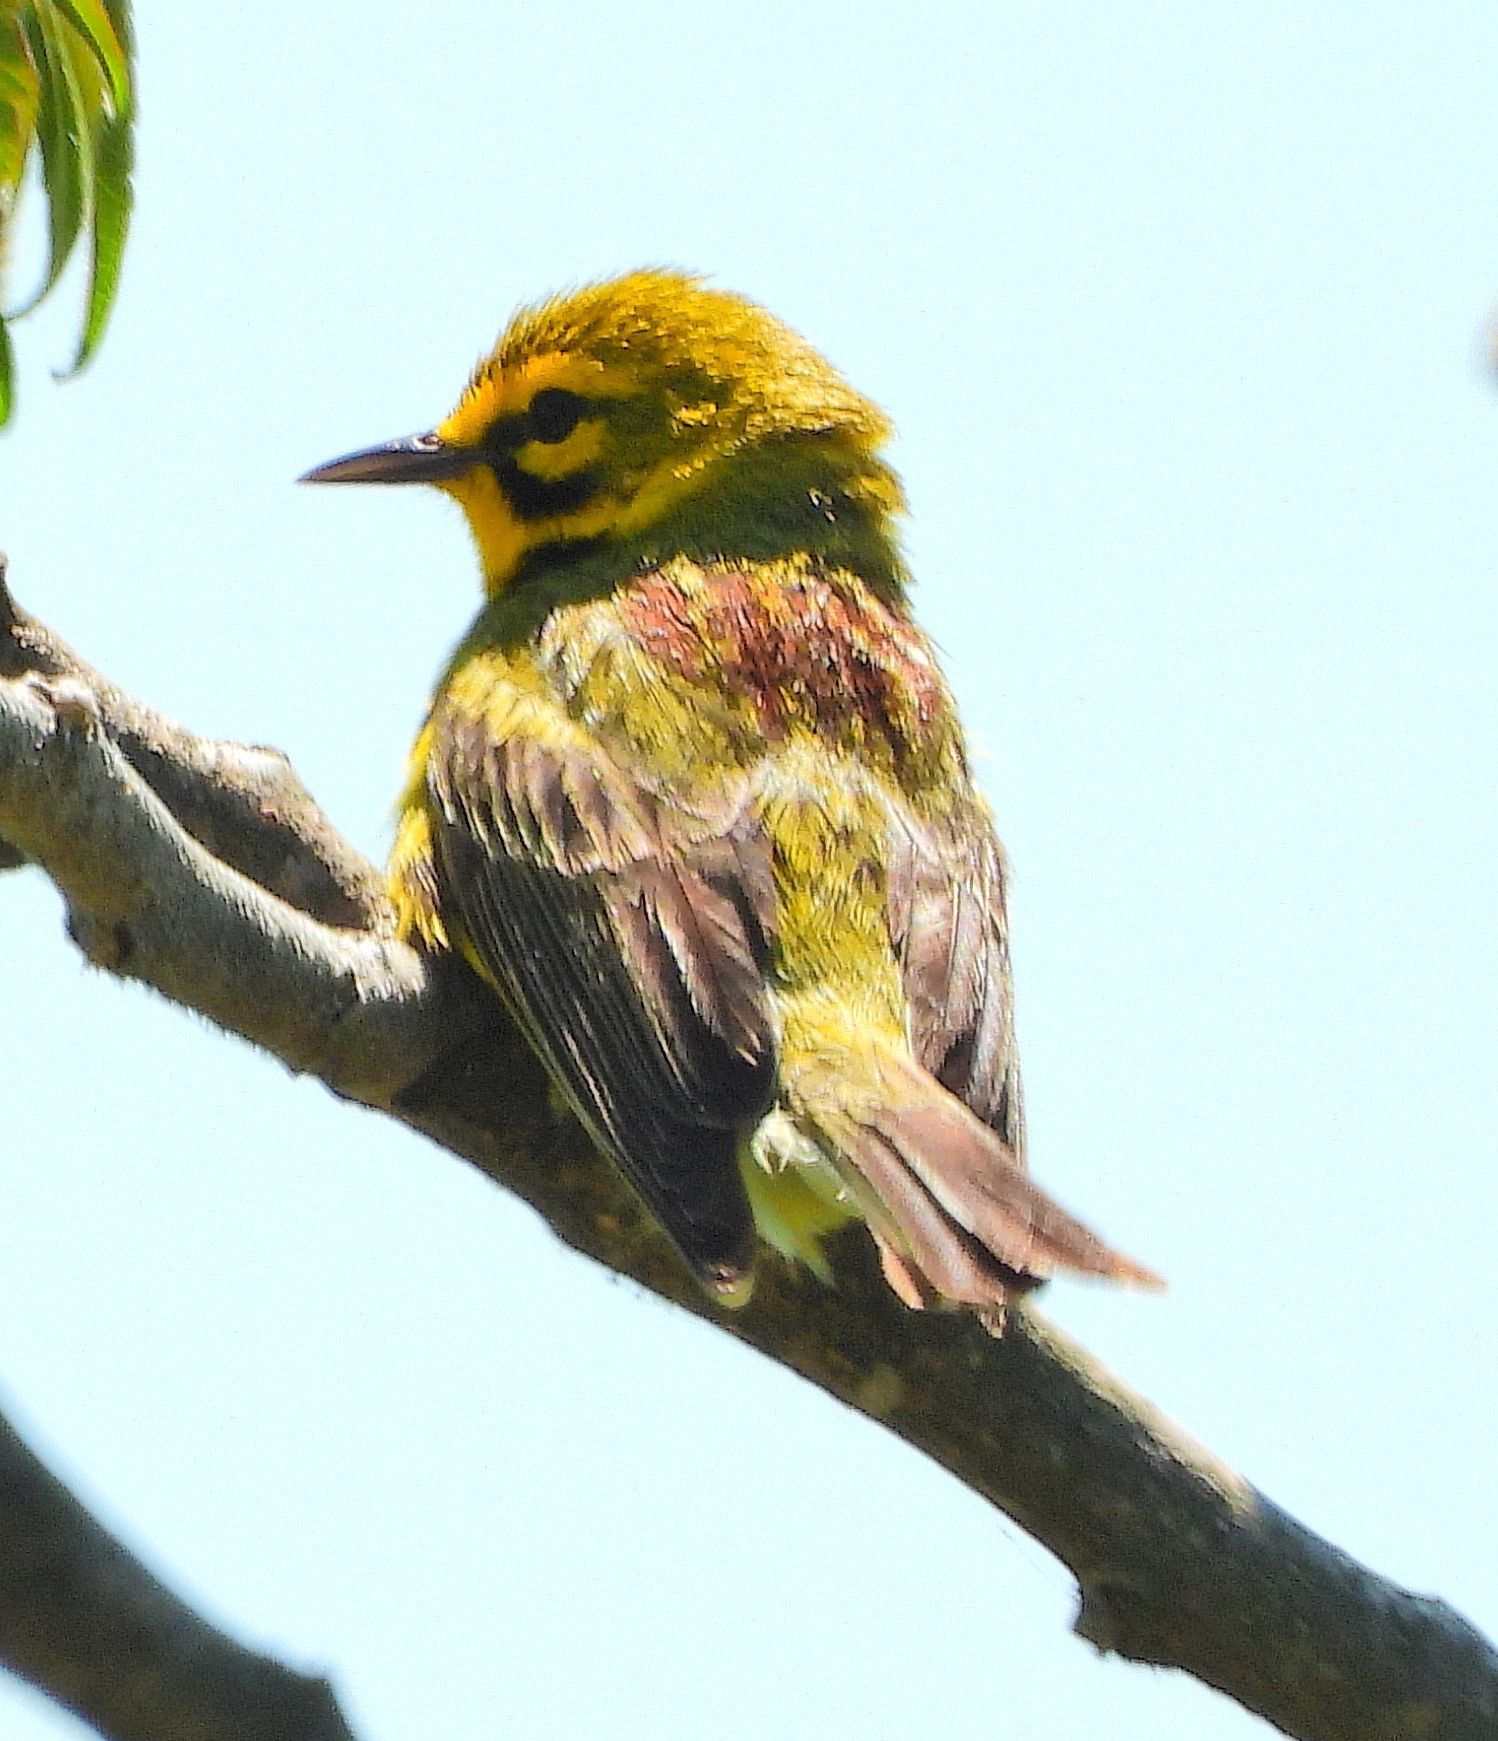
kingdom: Animalia
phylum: Chordata
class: Aves
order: Passeriformes
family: Parulidae
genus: Setophaga
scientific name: Setophaga discolor
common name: Prairie warbler
